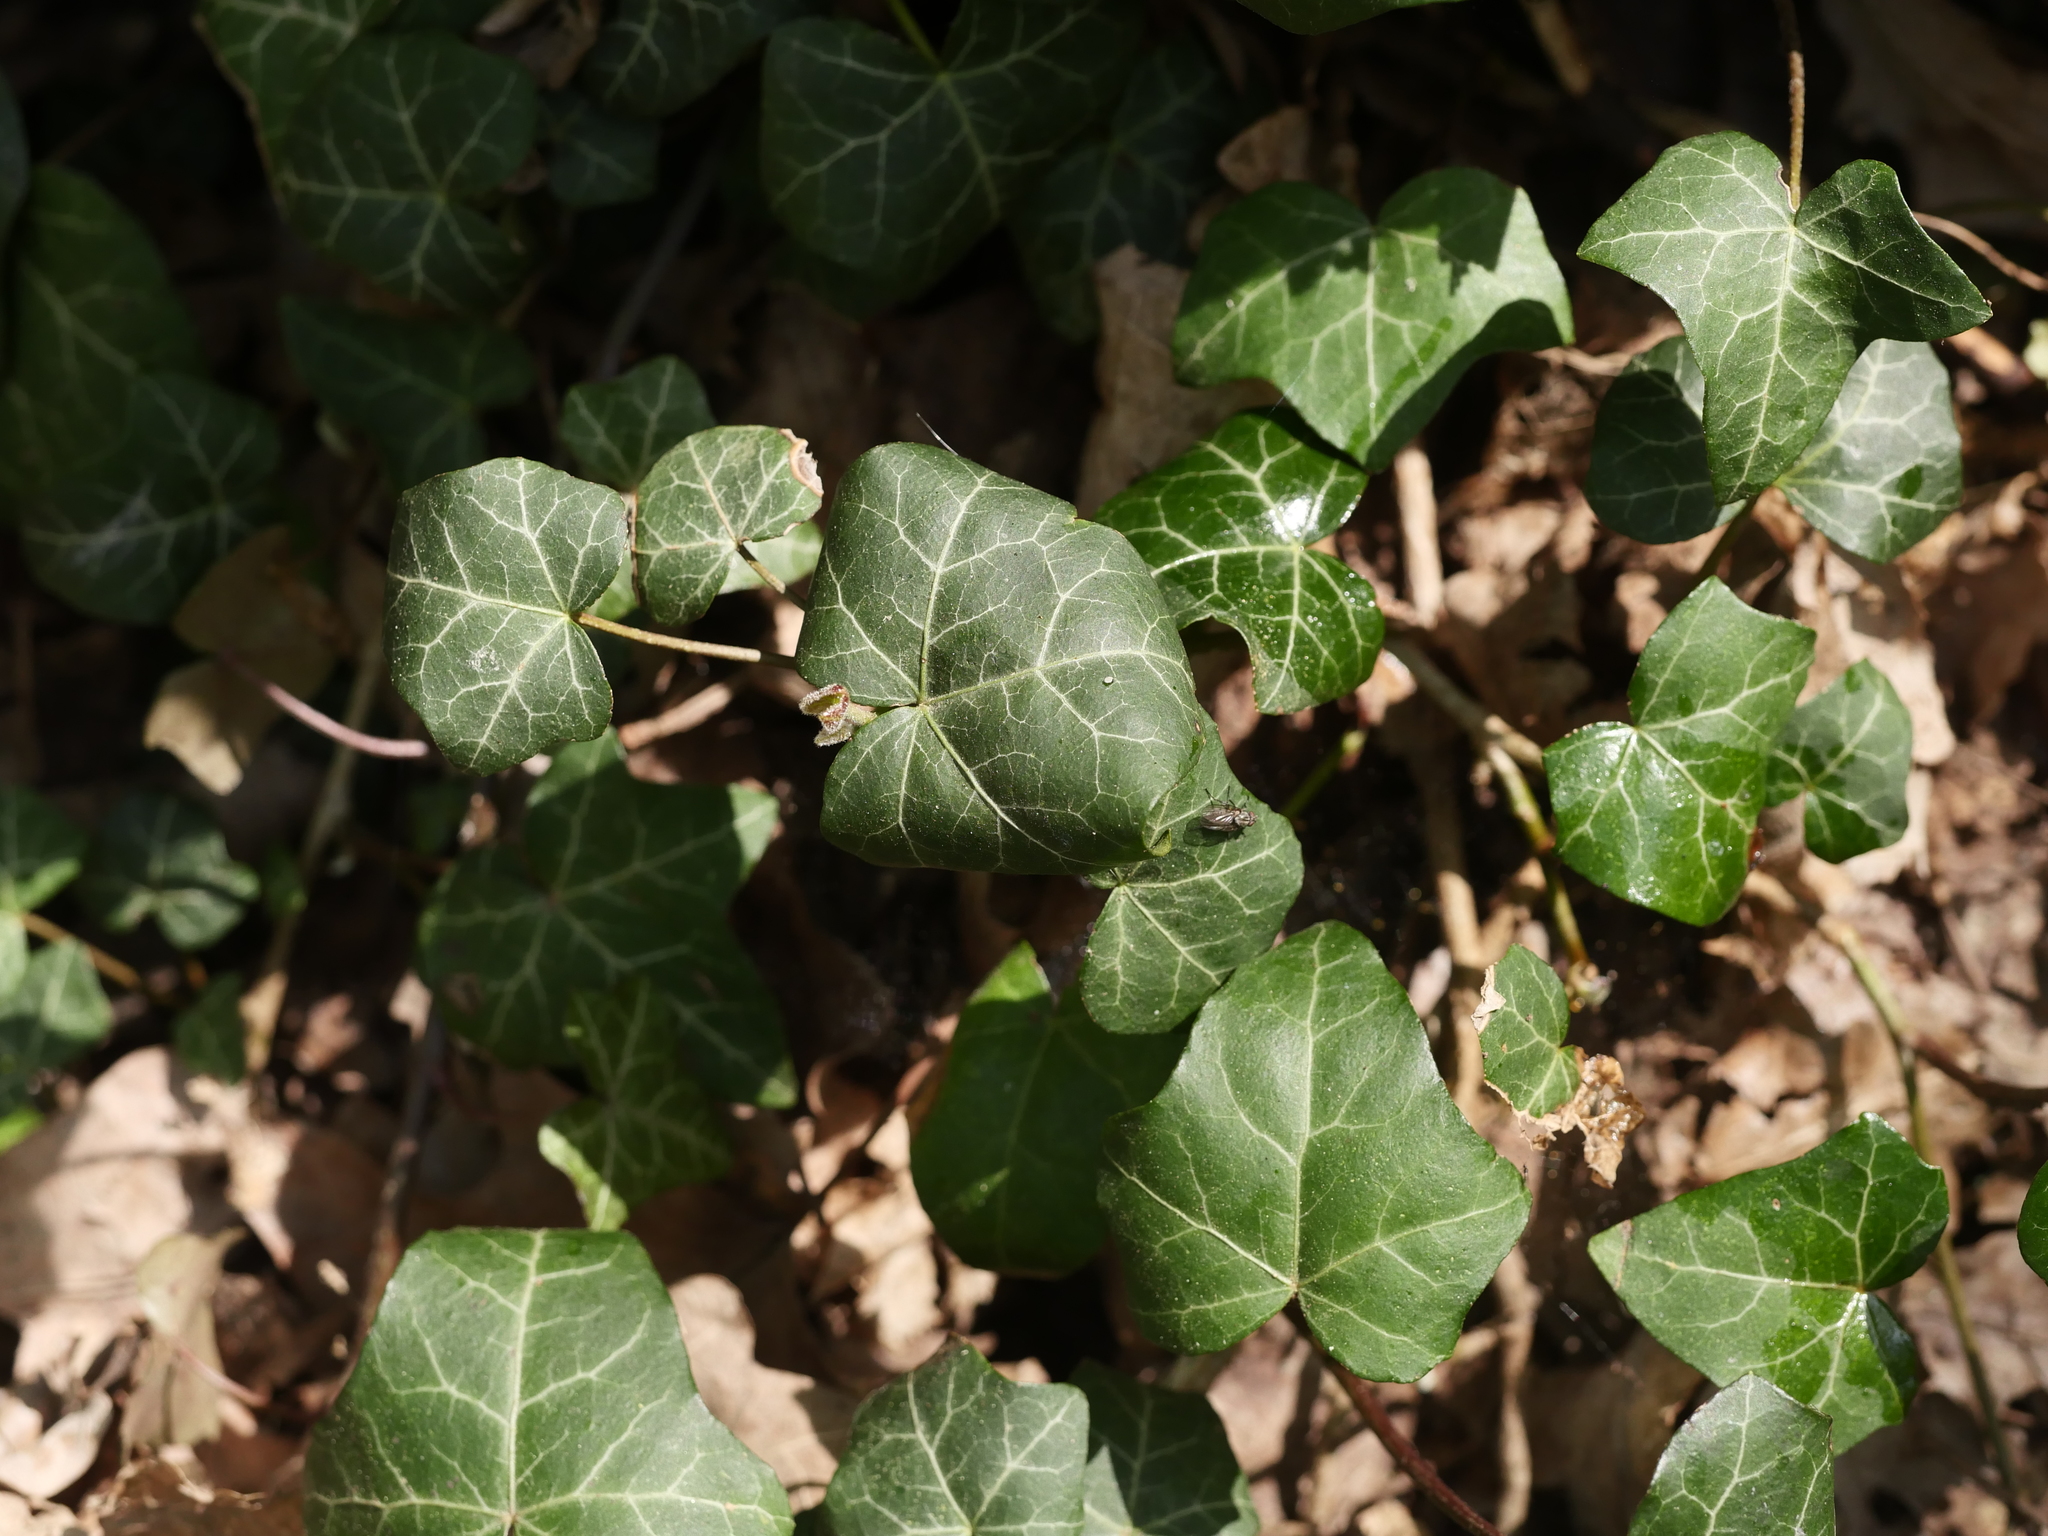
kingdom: Plantae
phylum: Tracheophyta
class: Magnoliopsida
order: Apiales
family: Araliaceae
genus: Hedera
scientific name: Hedera helix
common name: Ivy
